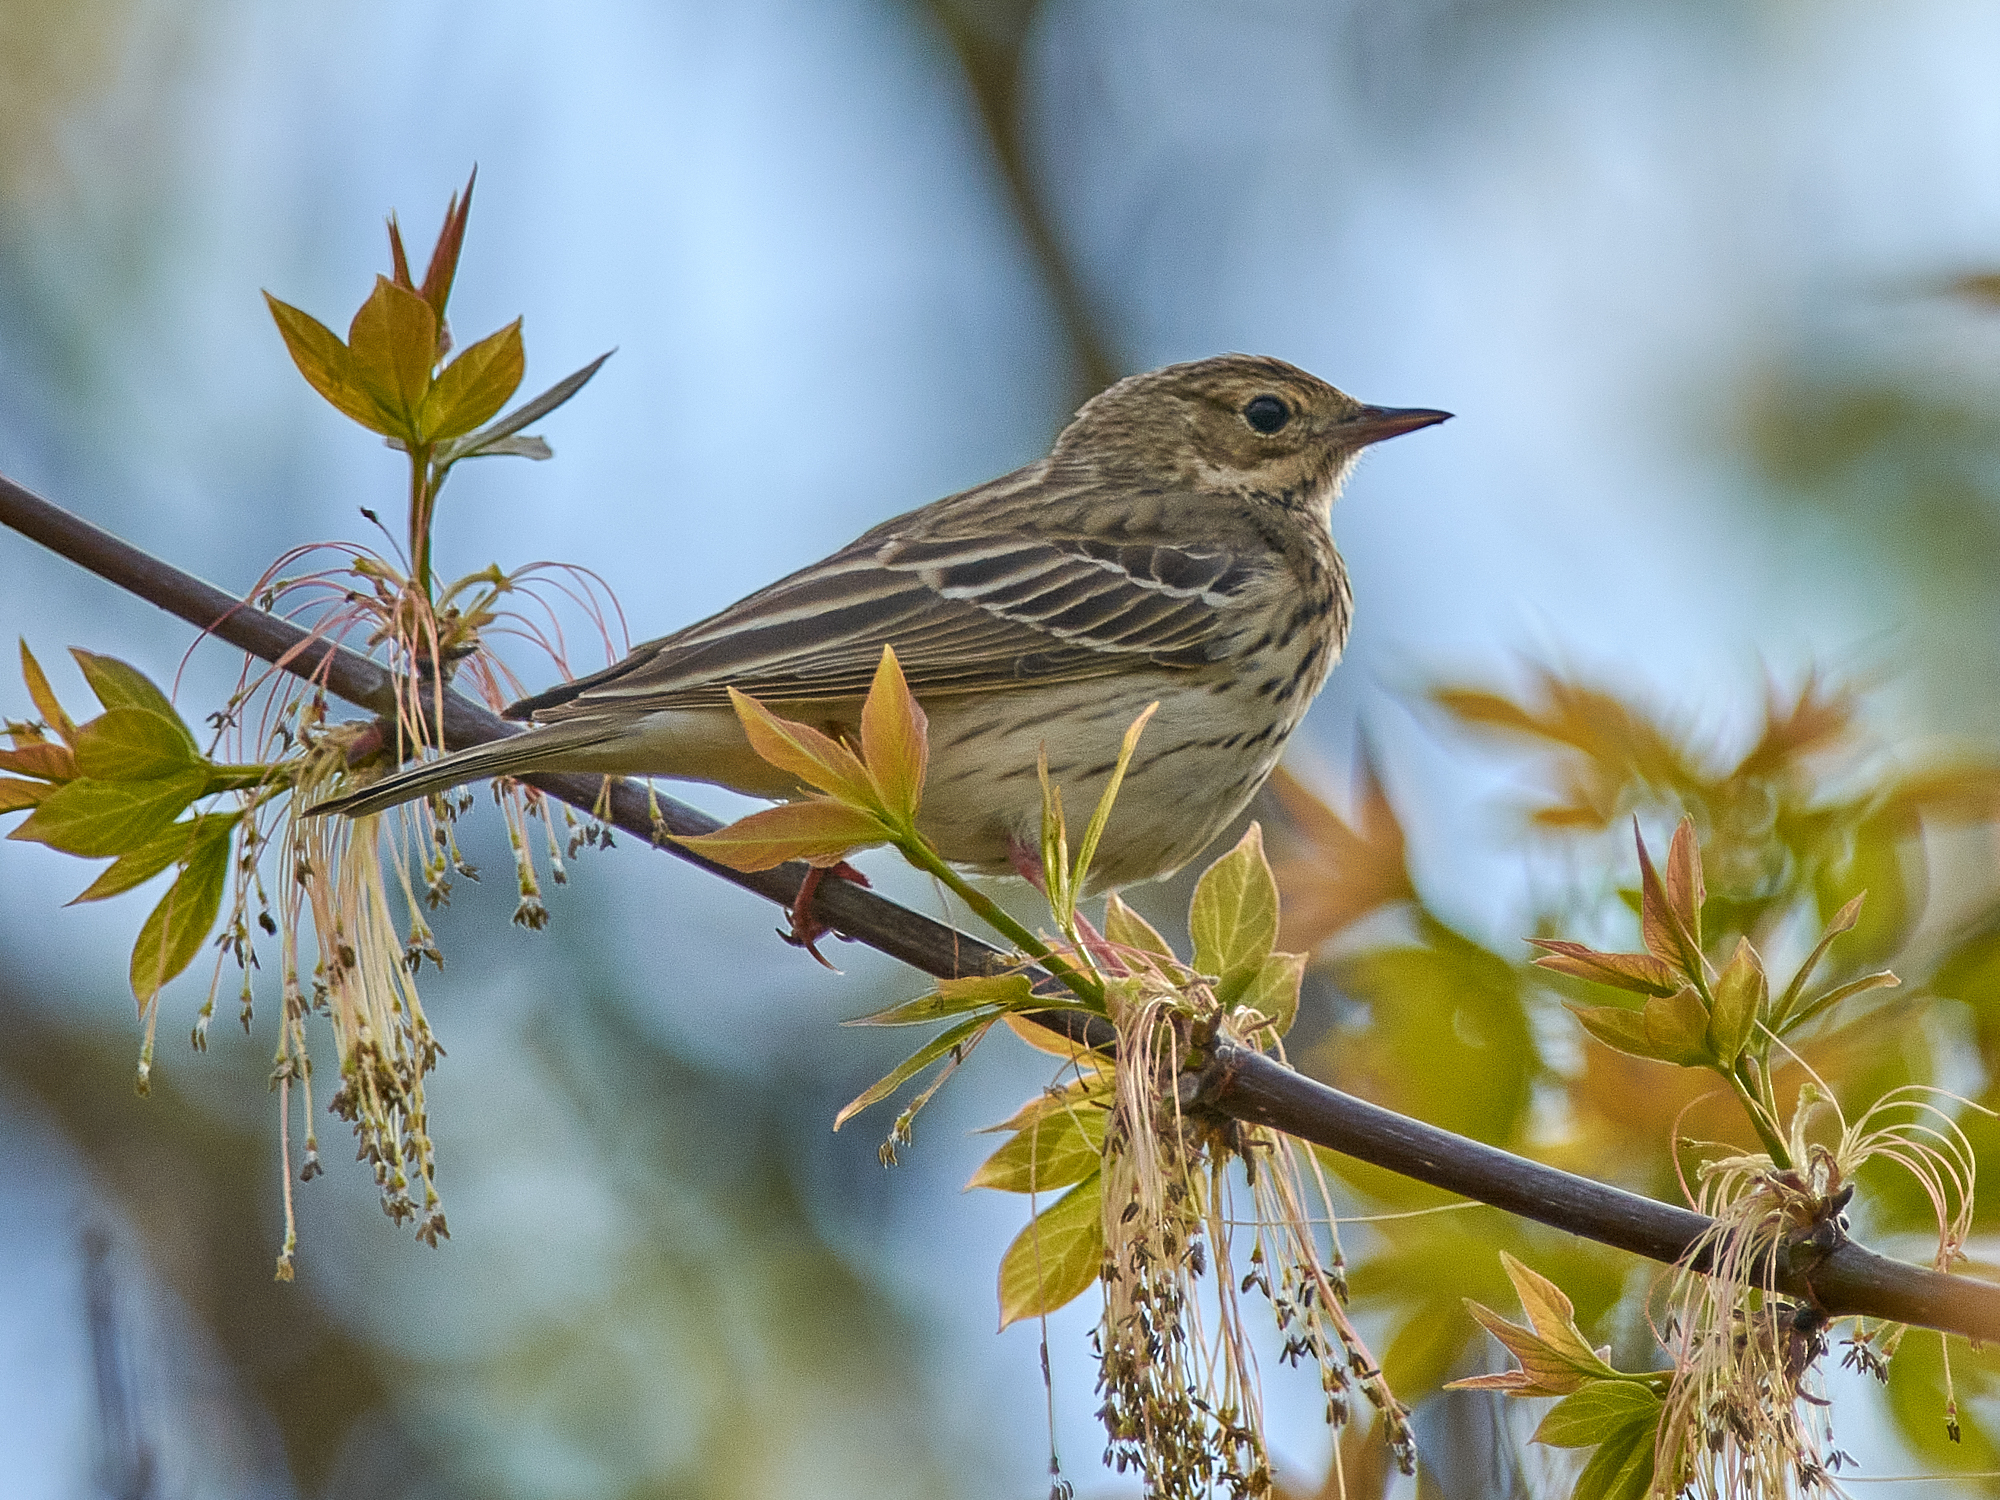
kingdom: Animalia
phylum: Chordata
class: Aves
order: Passeriformes
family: Motacillidae
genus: Anthus
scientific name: Anthus trivialis
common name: Tree pipit
